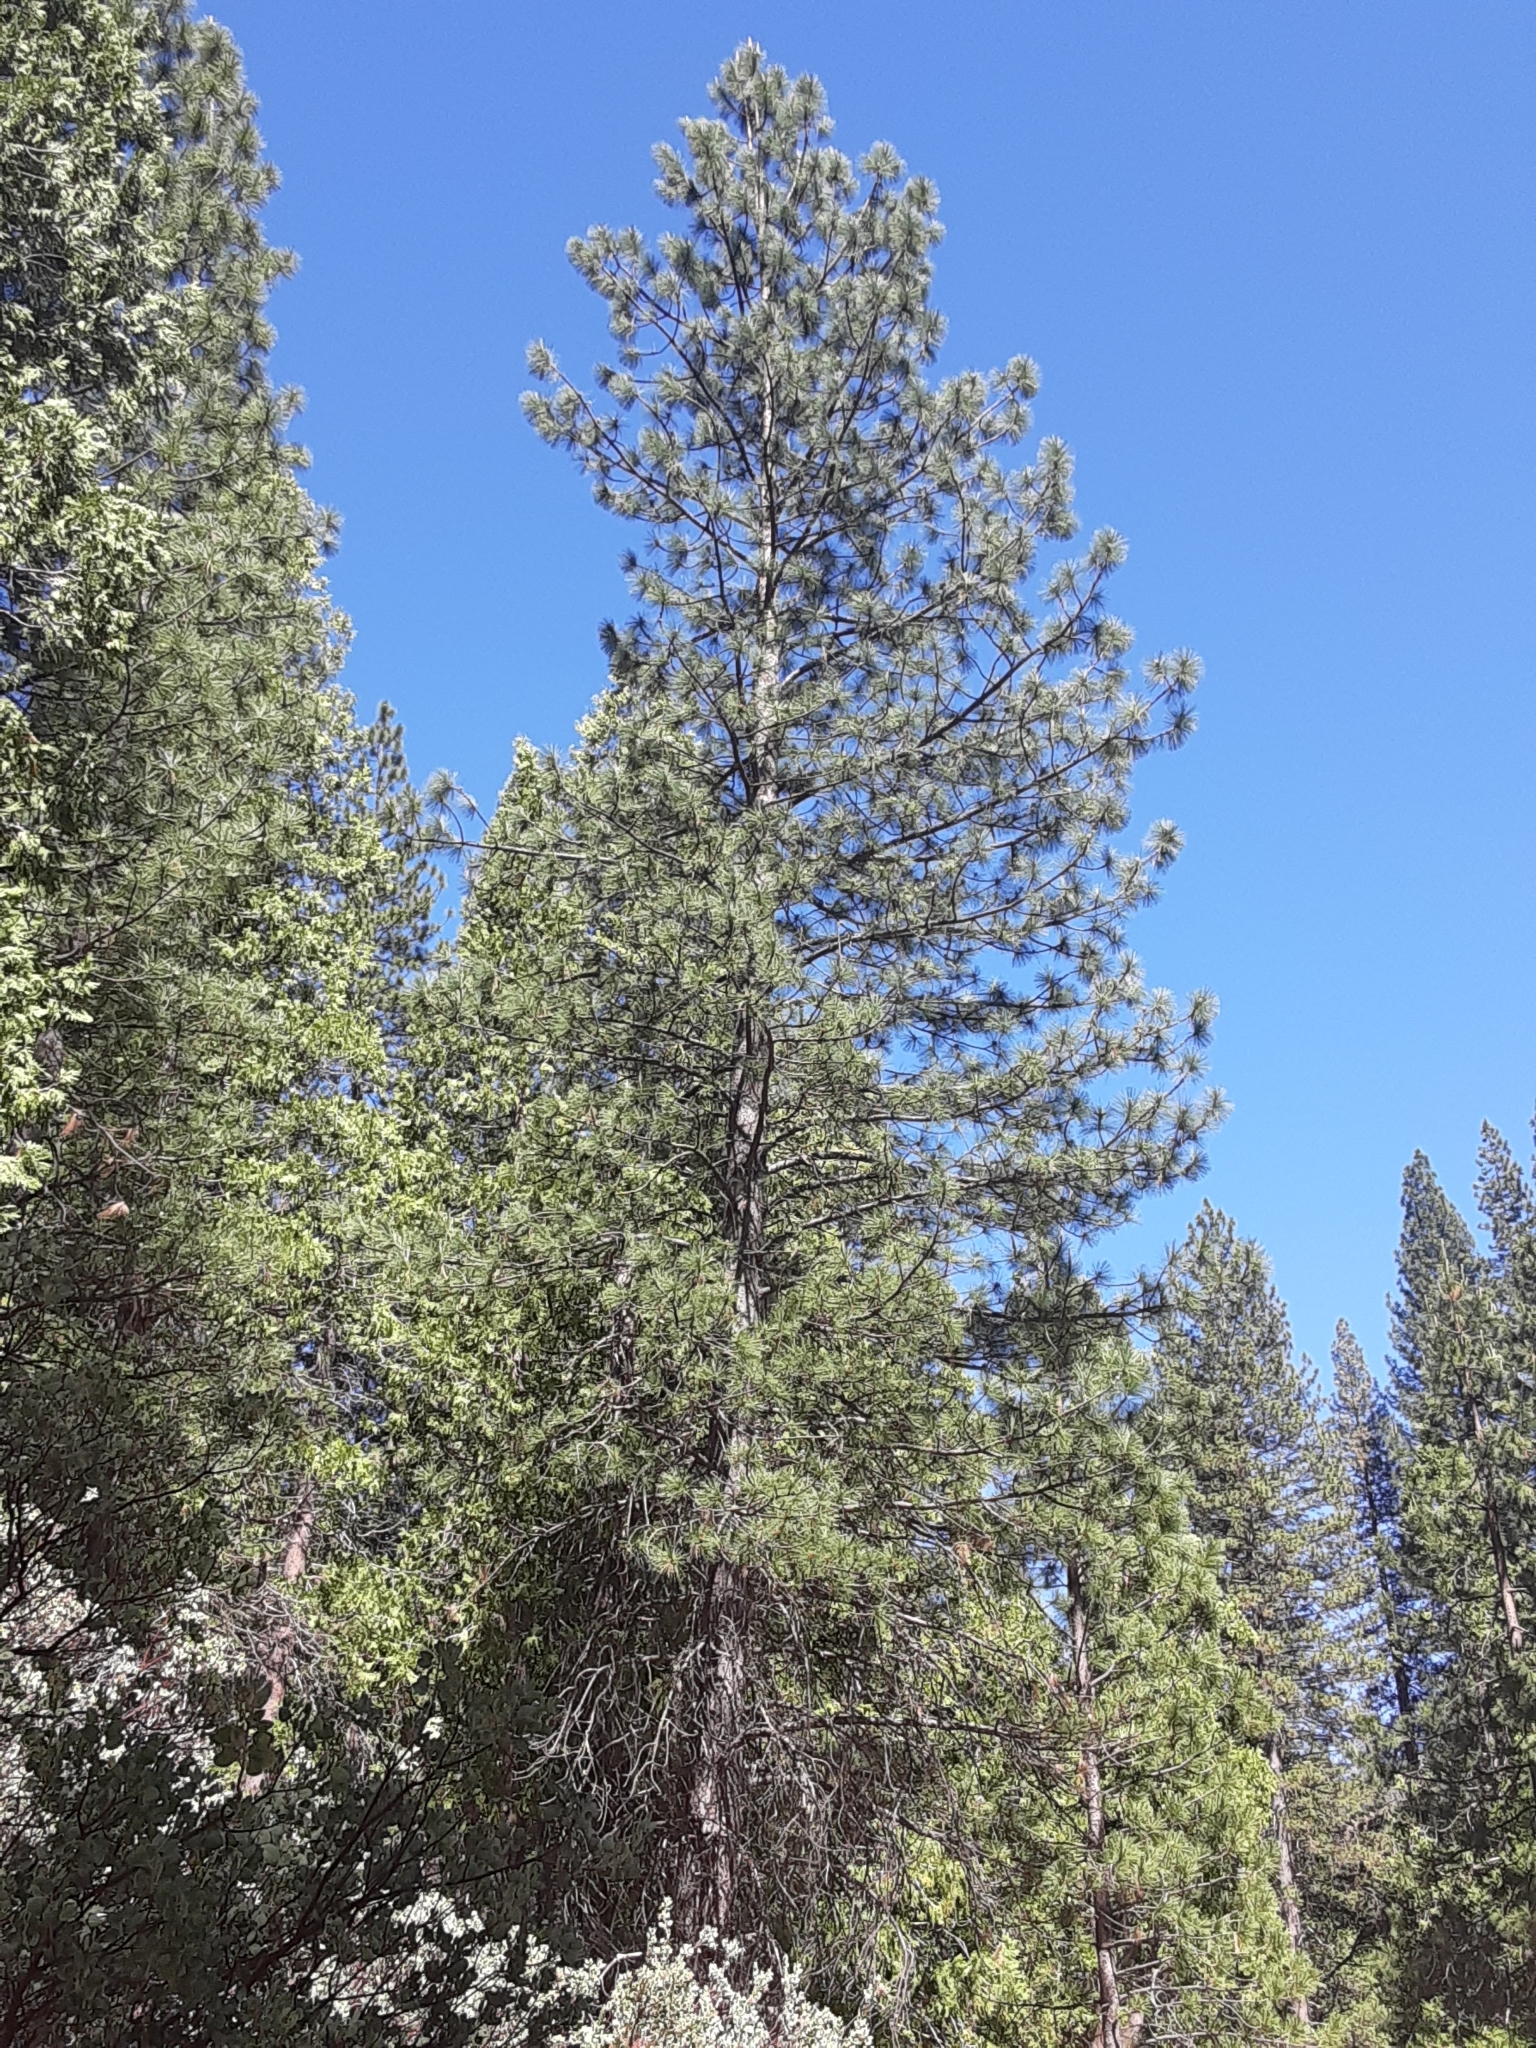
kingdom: Plantae
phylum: Tracheophyta
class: Pinopsida
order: Pinales
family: Pinaceae
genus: Pinus
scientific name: Pinus ponderosa
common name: Western yellow-pine
